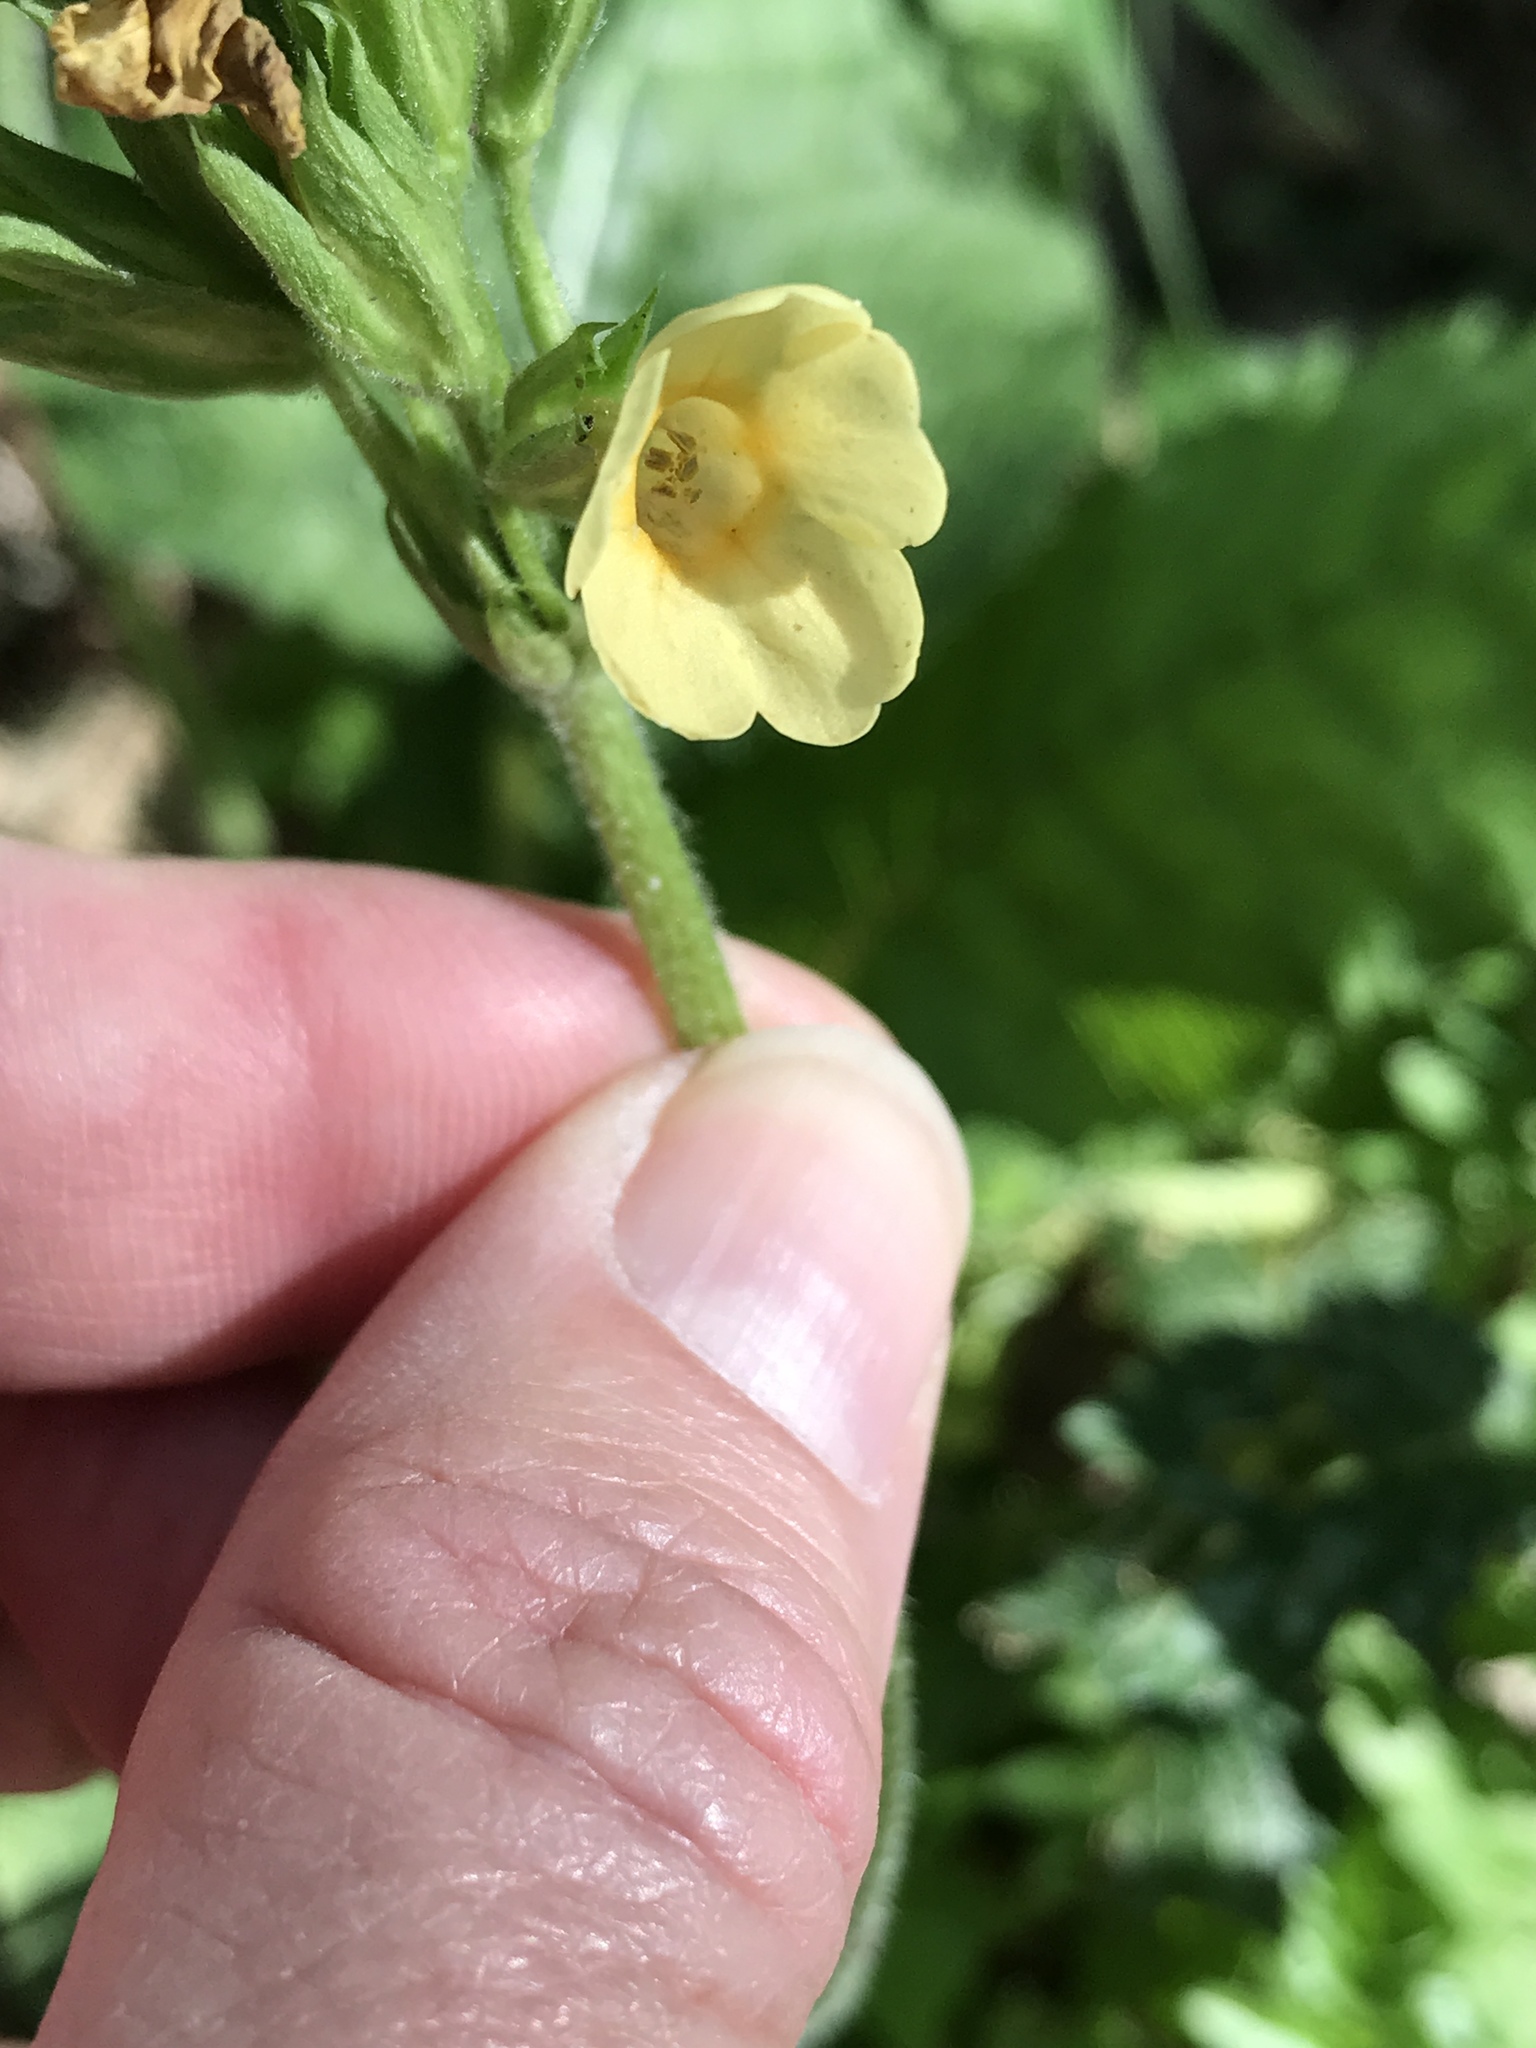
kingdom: Plantae
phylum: Tracheophyta
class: Magnoliopsida
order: Ericales
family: Primulaceae
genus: Primula
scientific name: Primula elatior
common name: Oxlip
